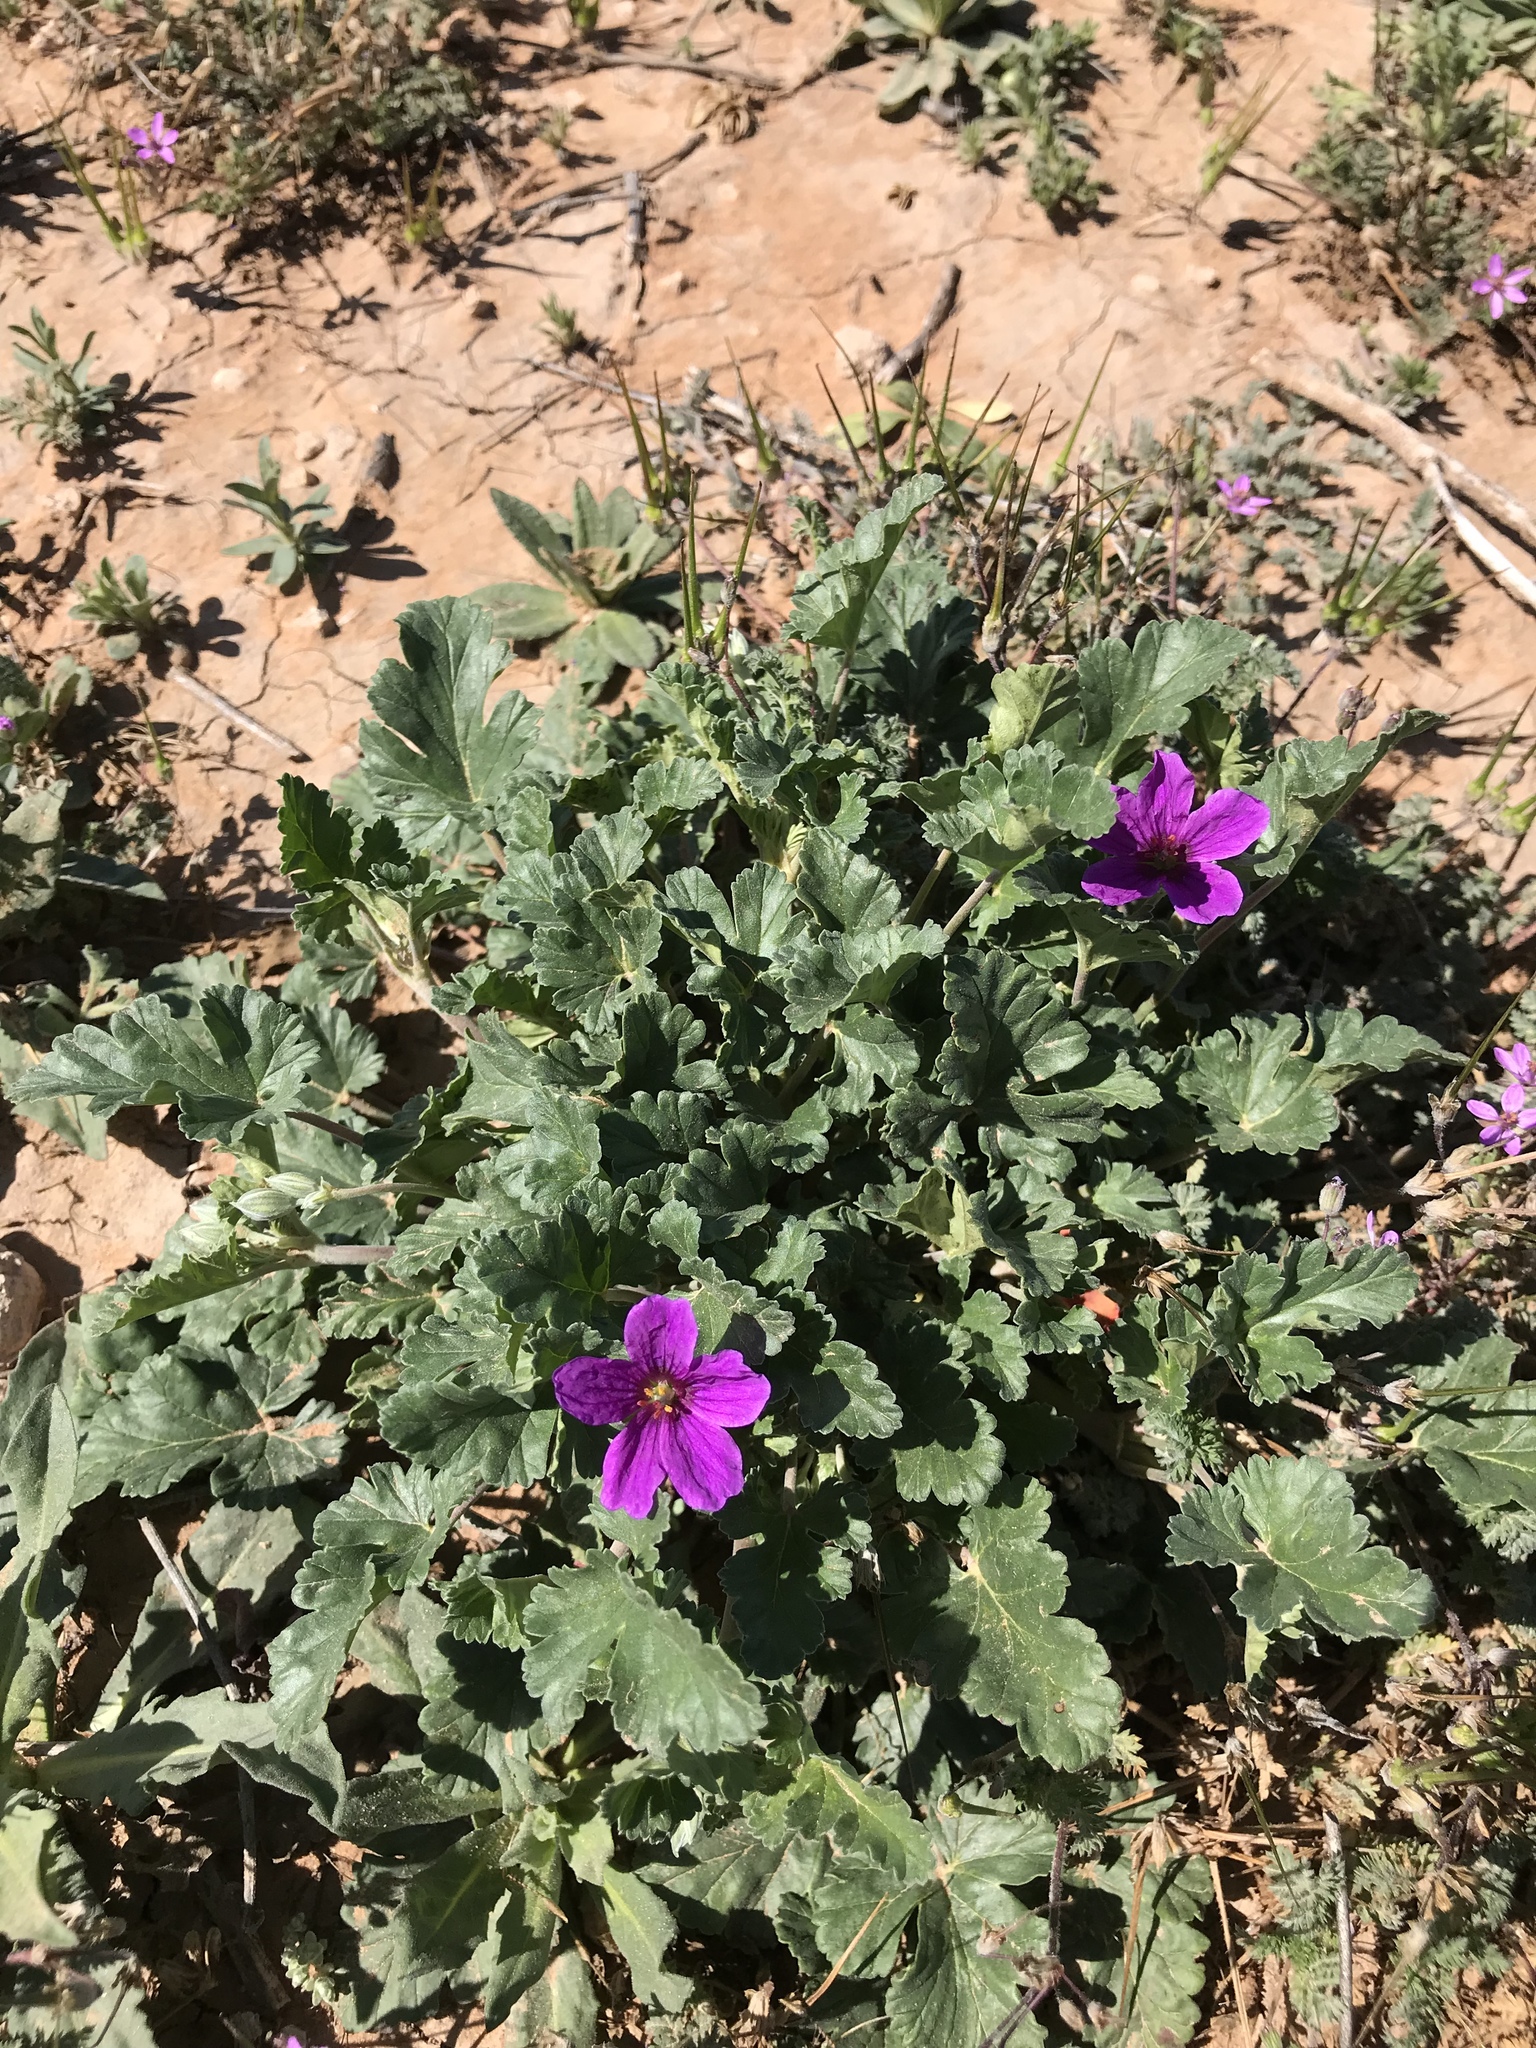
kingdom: Plantae
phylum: Tracheophyta
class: Magnoliopsida
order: Geraniales
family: Geraniaceae
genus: Erodium
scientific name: Erodium texanum
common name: Texas stork's-bill
